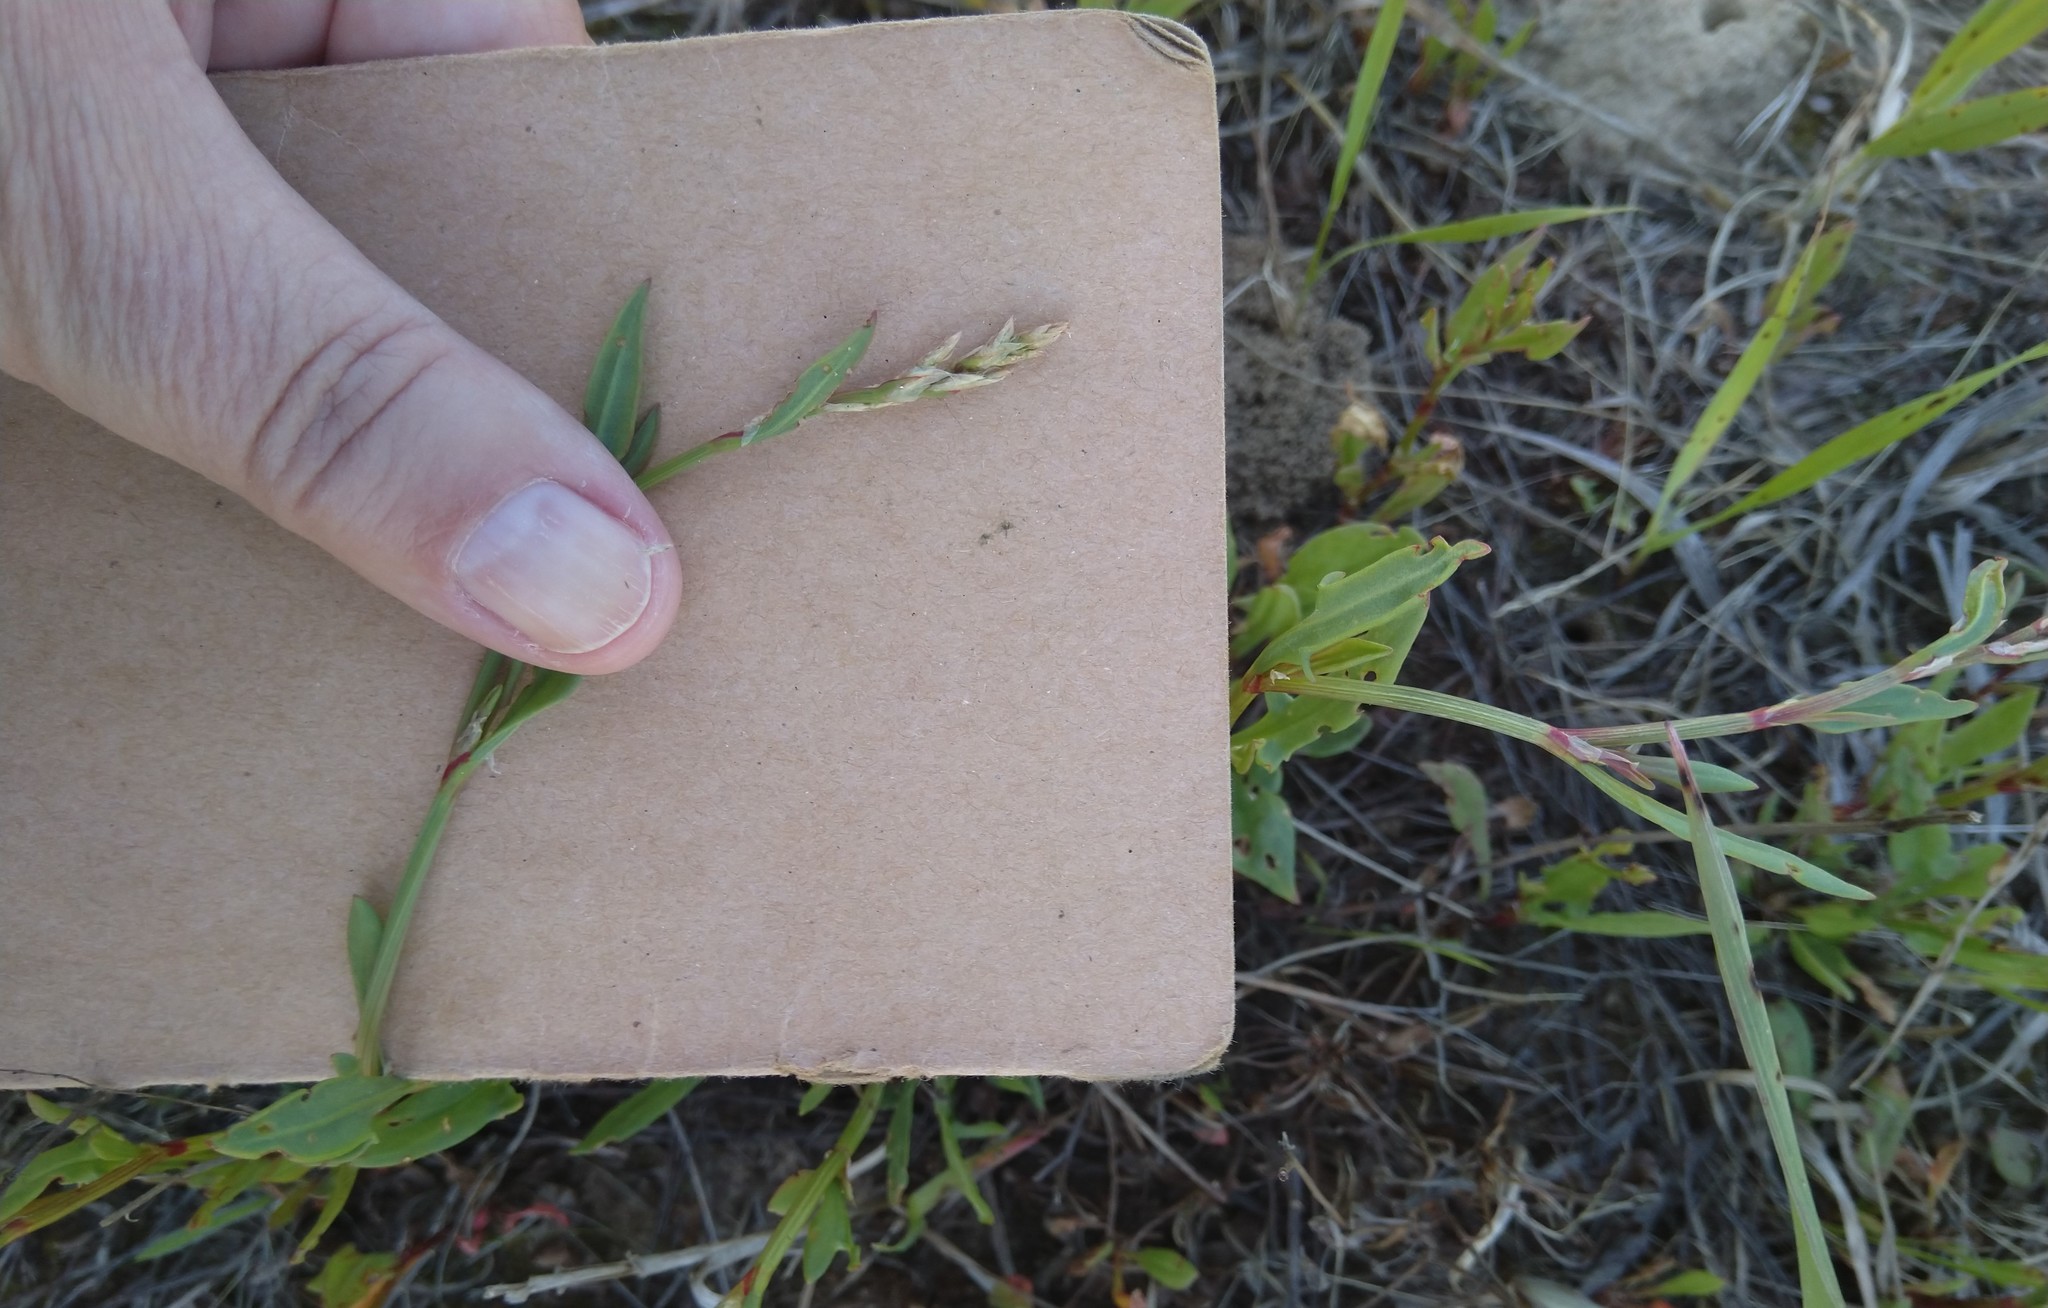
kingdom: Plantae
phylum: Tracheophyta
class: Magnoliopsida
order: Caryophyllales
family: Polygonaceae
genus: Rumex
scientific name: Rumex acetosella
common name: Common sheep sorrel
